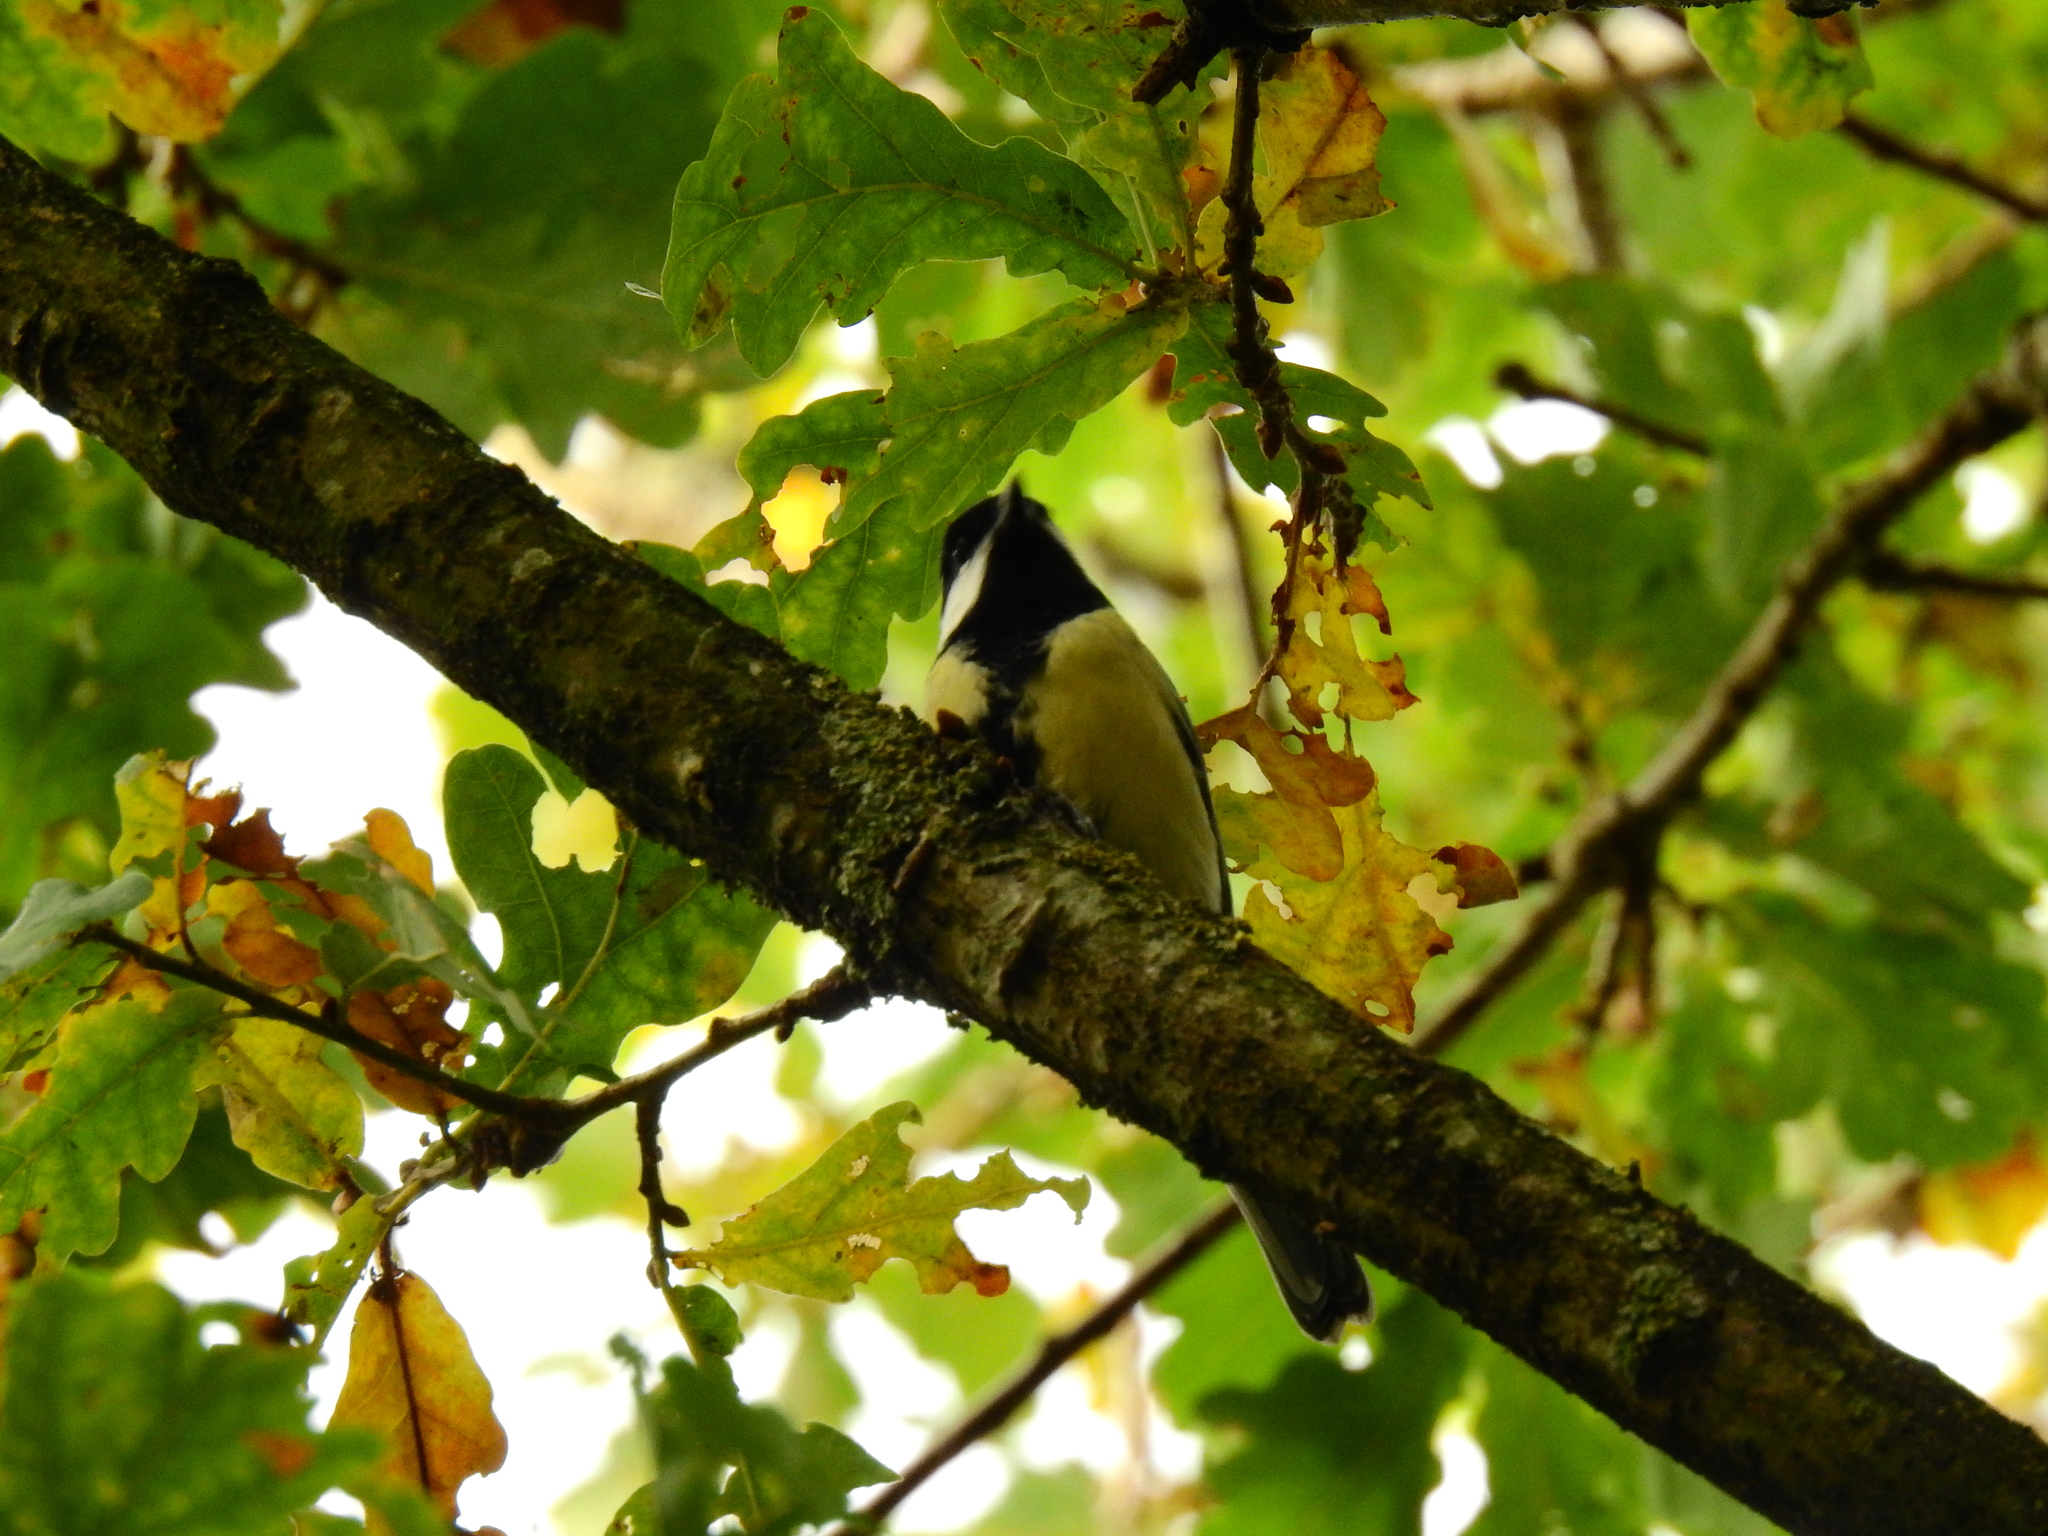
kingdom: Animalia
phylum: Chordata
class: Aves
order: Passeriformes
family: Paridae
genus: Parus
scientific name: Parus major
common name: Great tit
